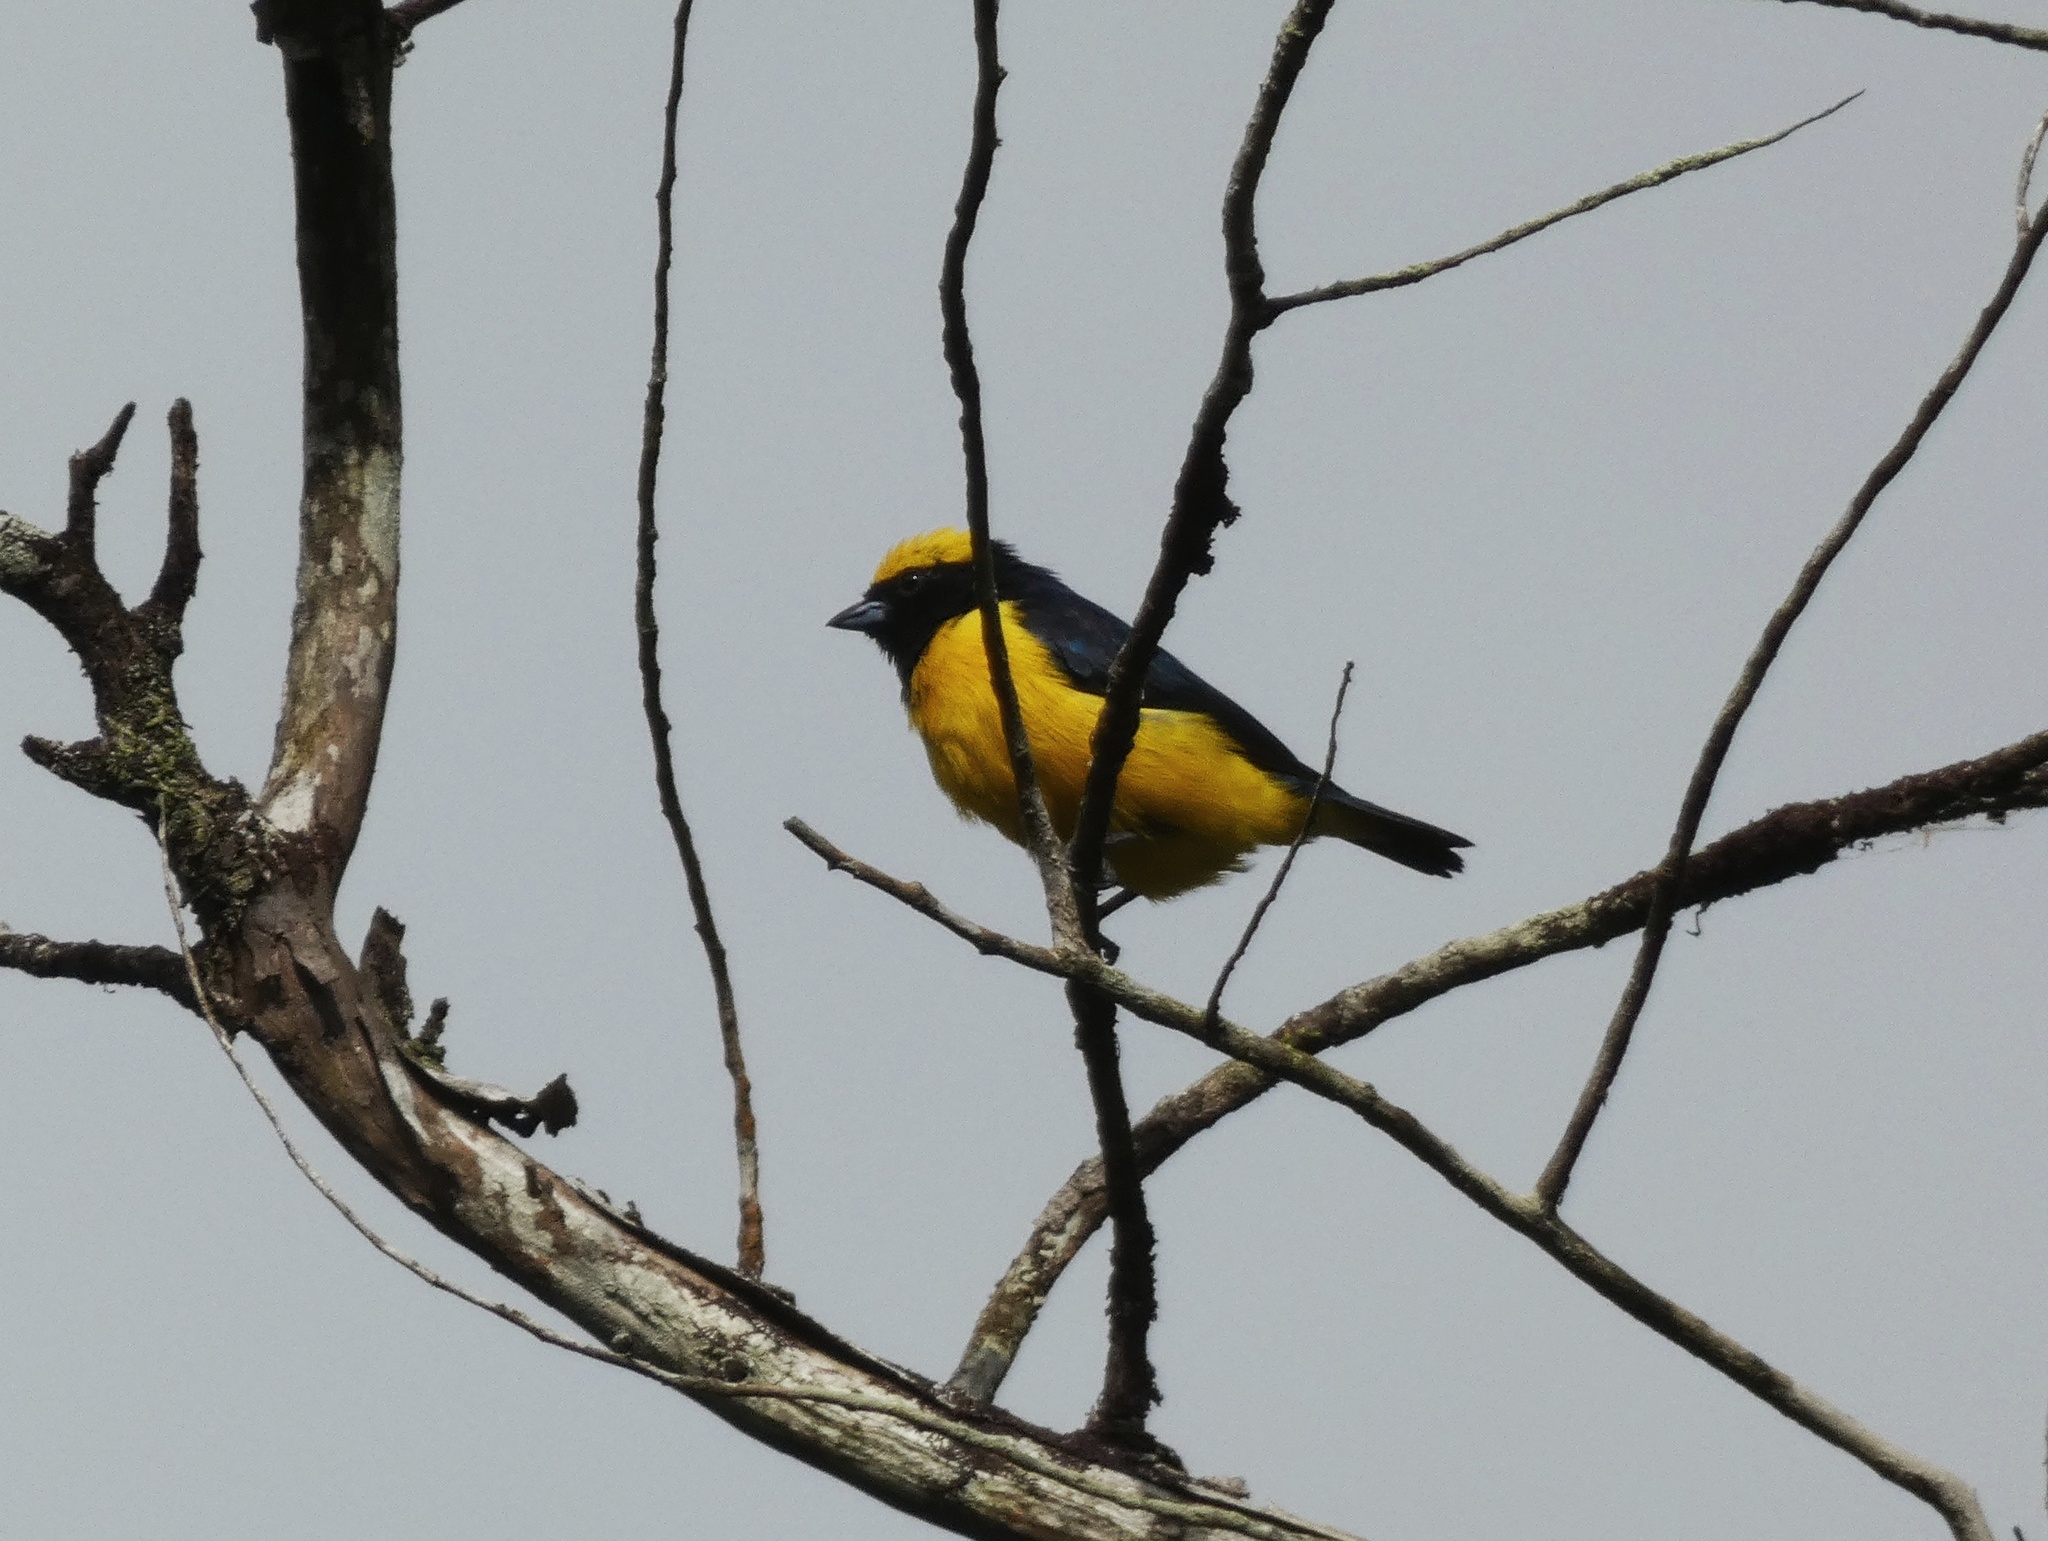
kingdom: Animalia
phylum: Chordata
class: Aves
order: Passeriformes
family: Fringillidae
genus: Euphonia
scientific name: Euphonia luteicapilla
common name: Yellow-crowned euphonia
